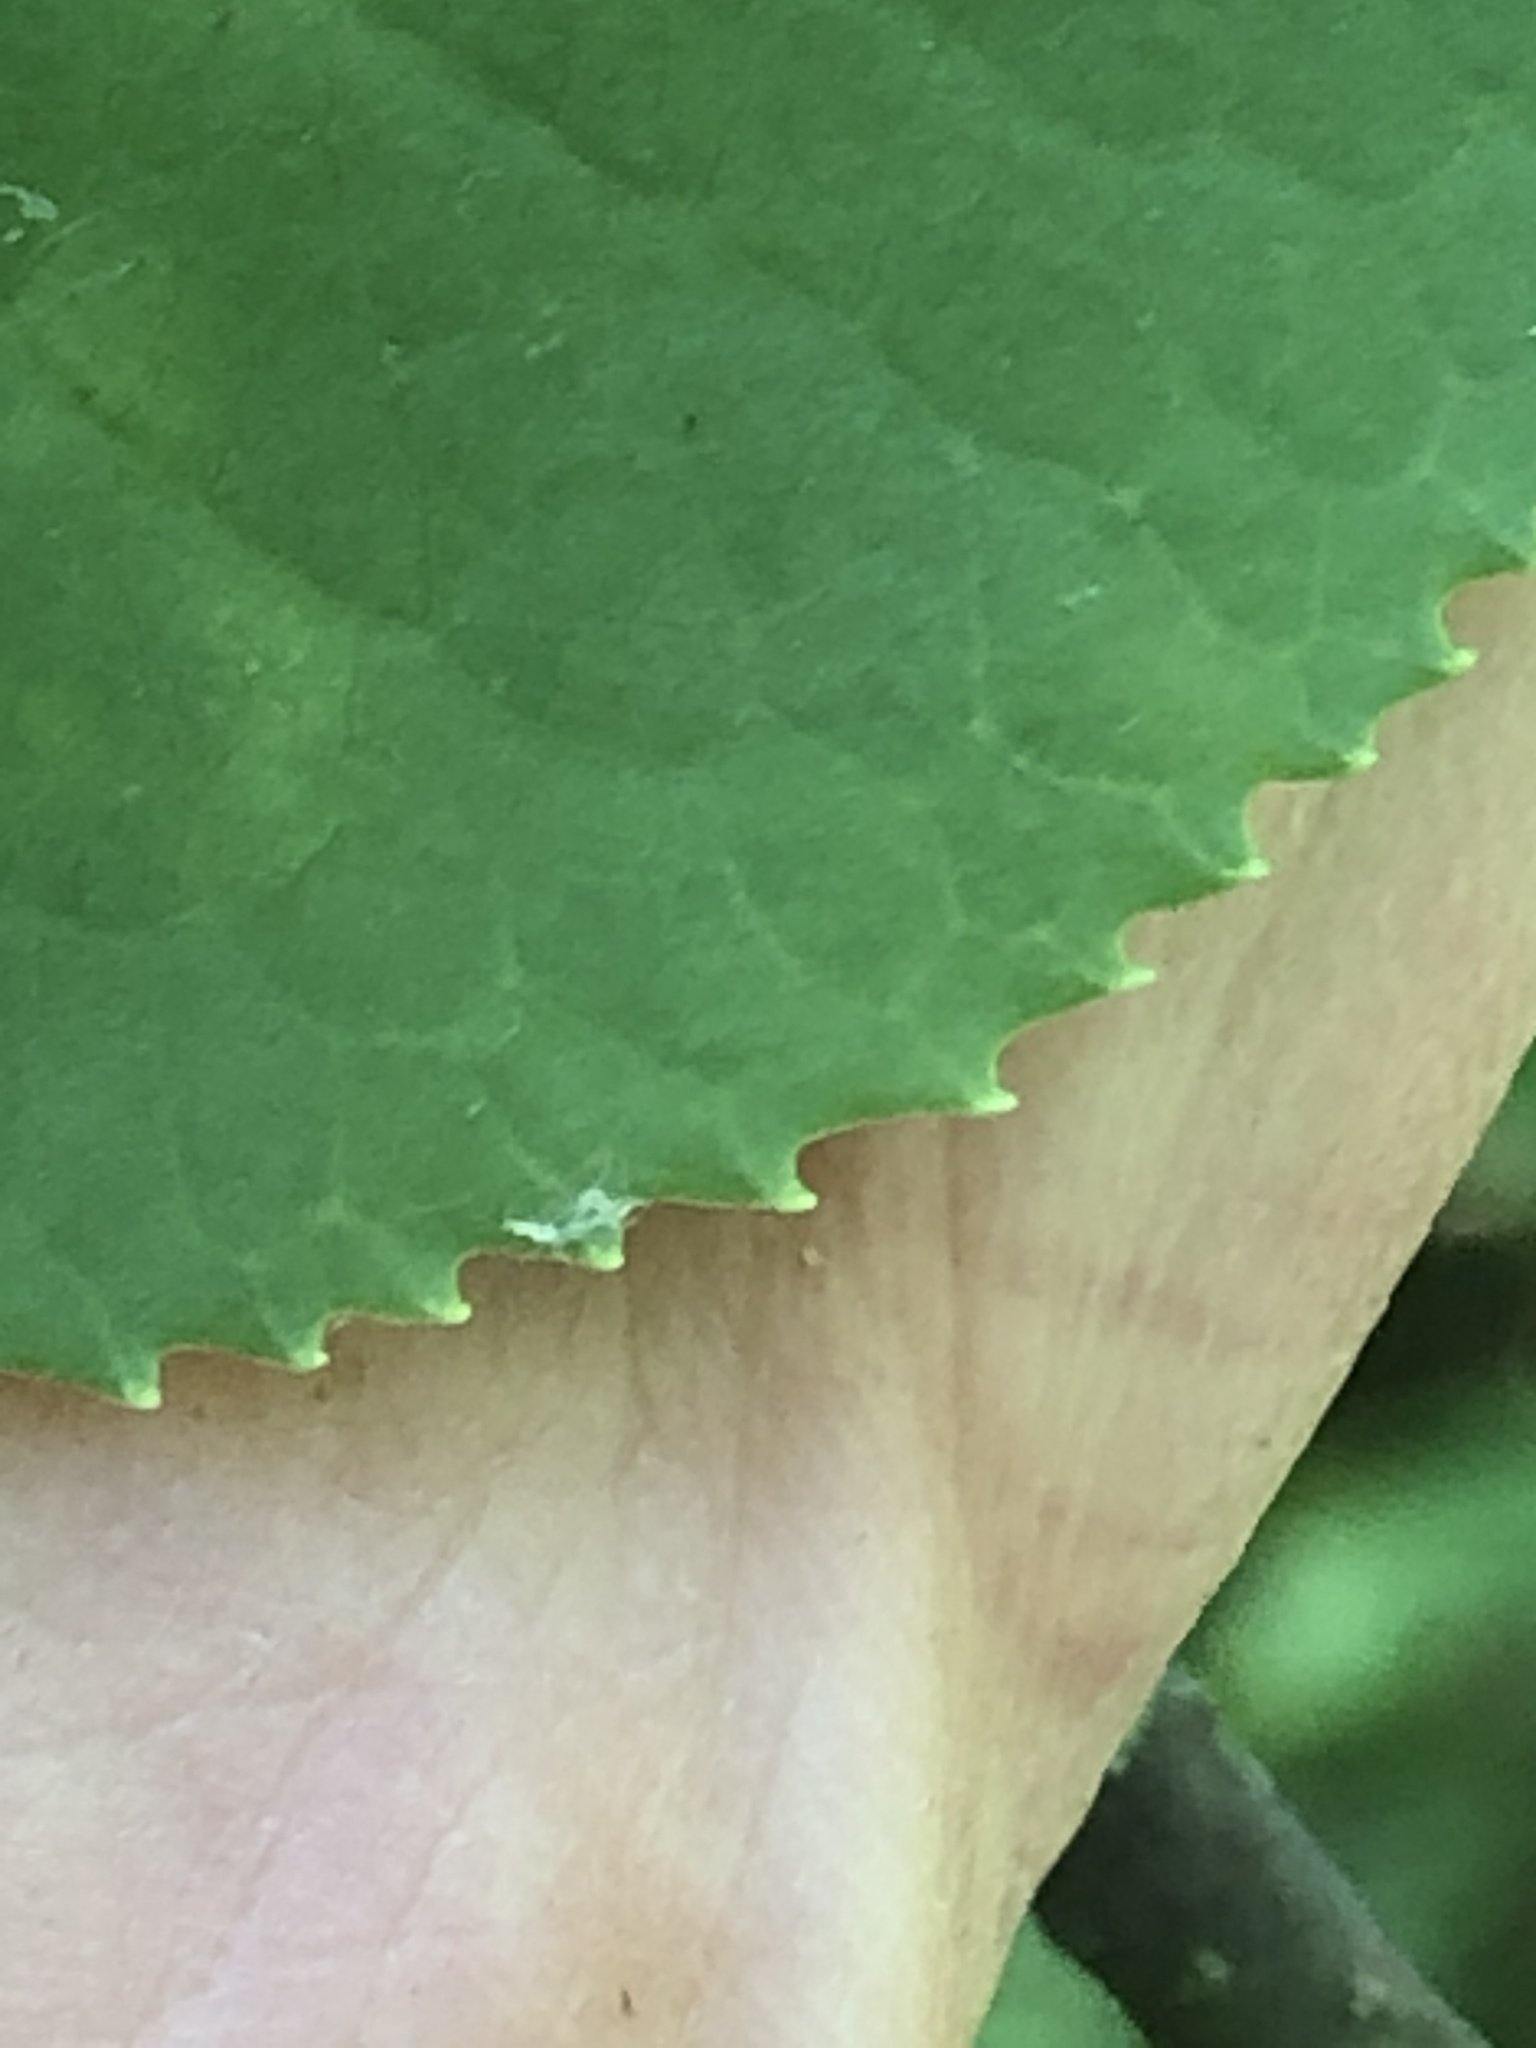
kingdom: Plantae
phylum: Tracheophyta
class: Magnoliopsida
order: Dipsacales
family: Viburnaceae
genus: Viburnum
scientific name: Viburnum lentago
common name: Black haw
